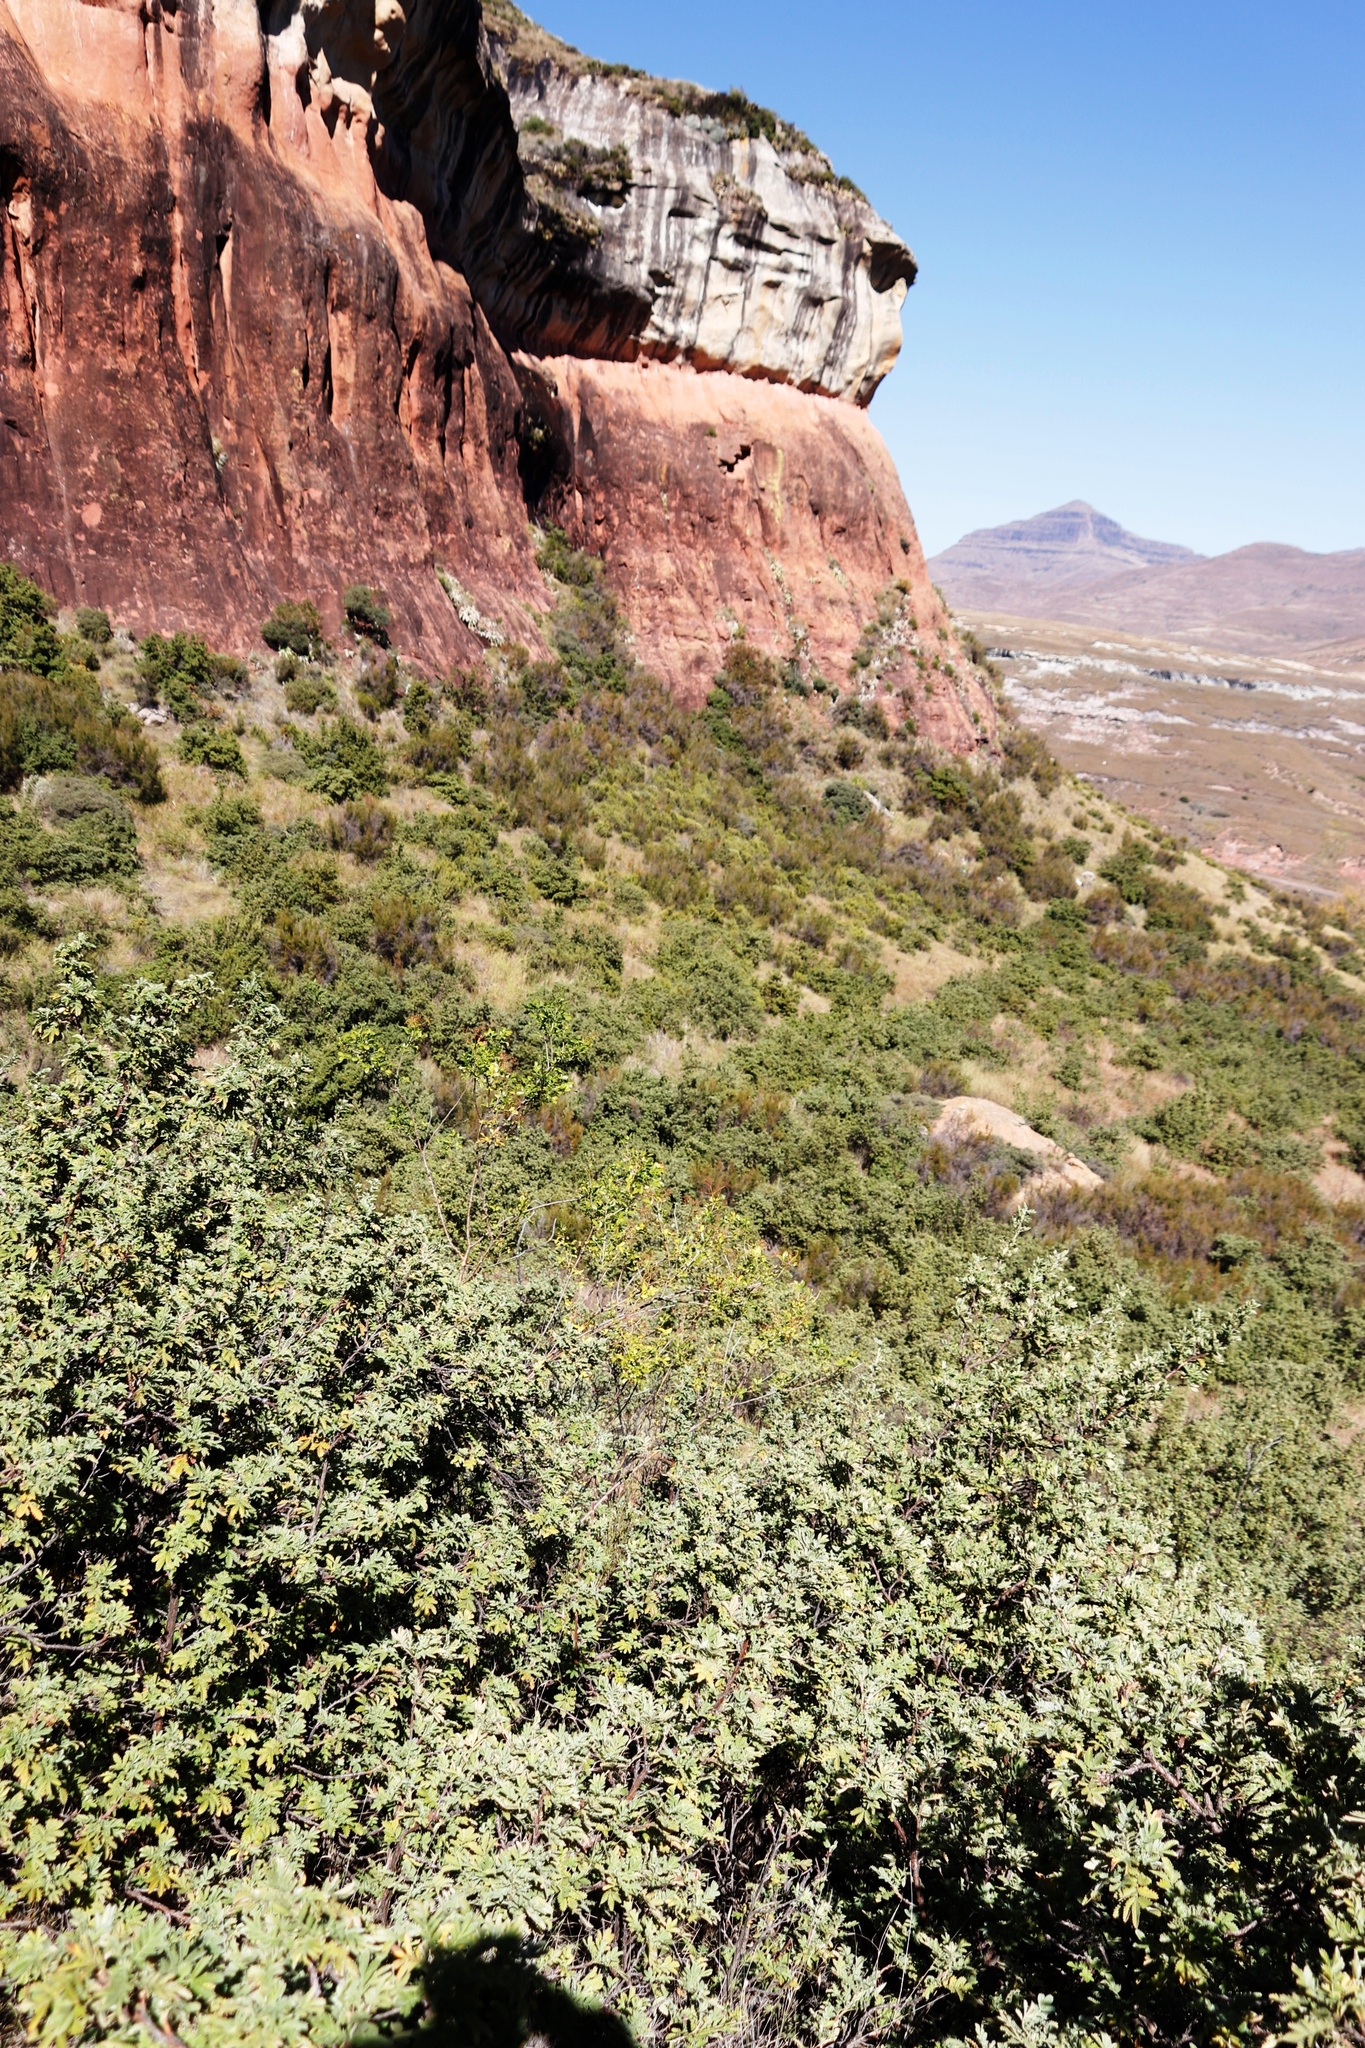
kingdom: Plantae
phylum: Tracheophyta
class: Magnoliopsida
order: Rosales
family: Rosaceae
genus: Leucosidea
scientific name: Leucosidea sericea
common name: Oldwood
